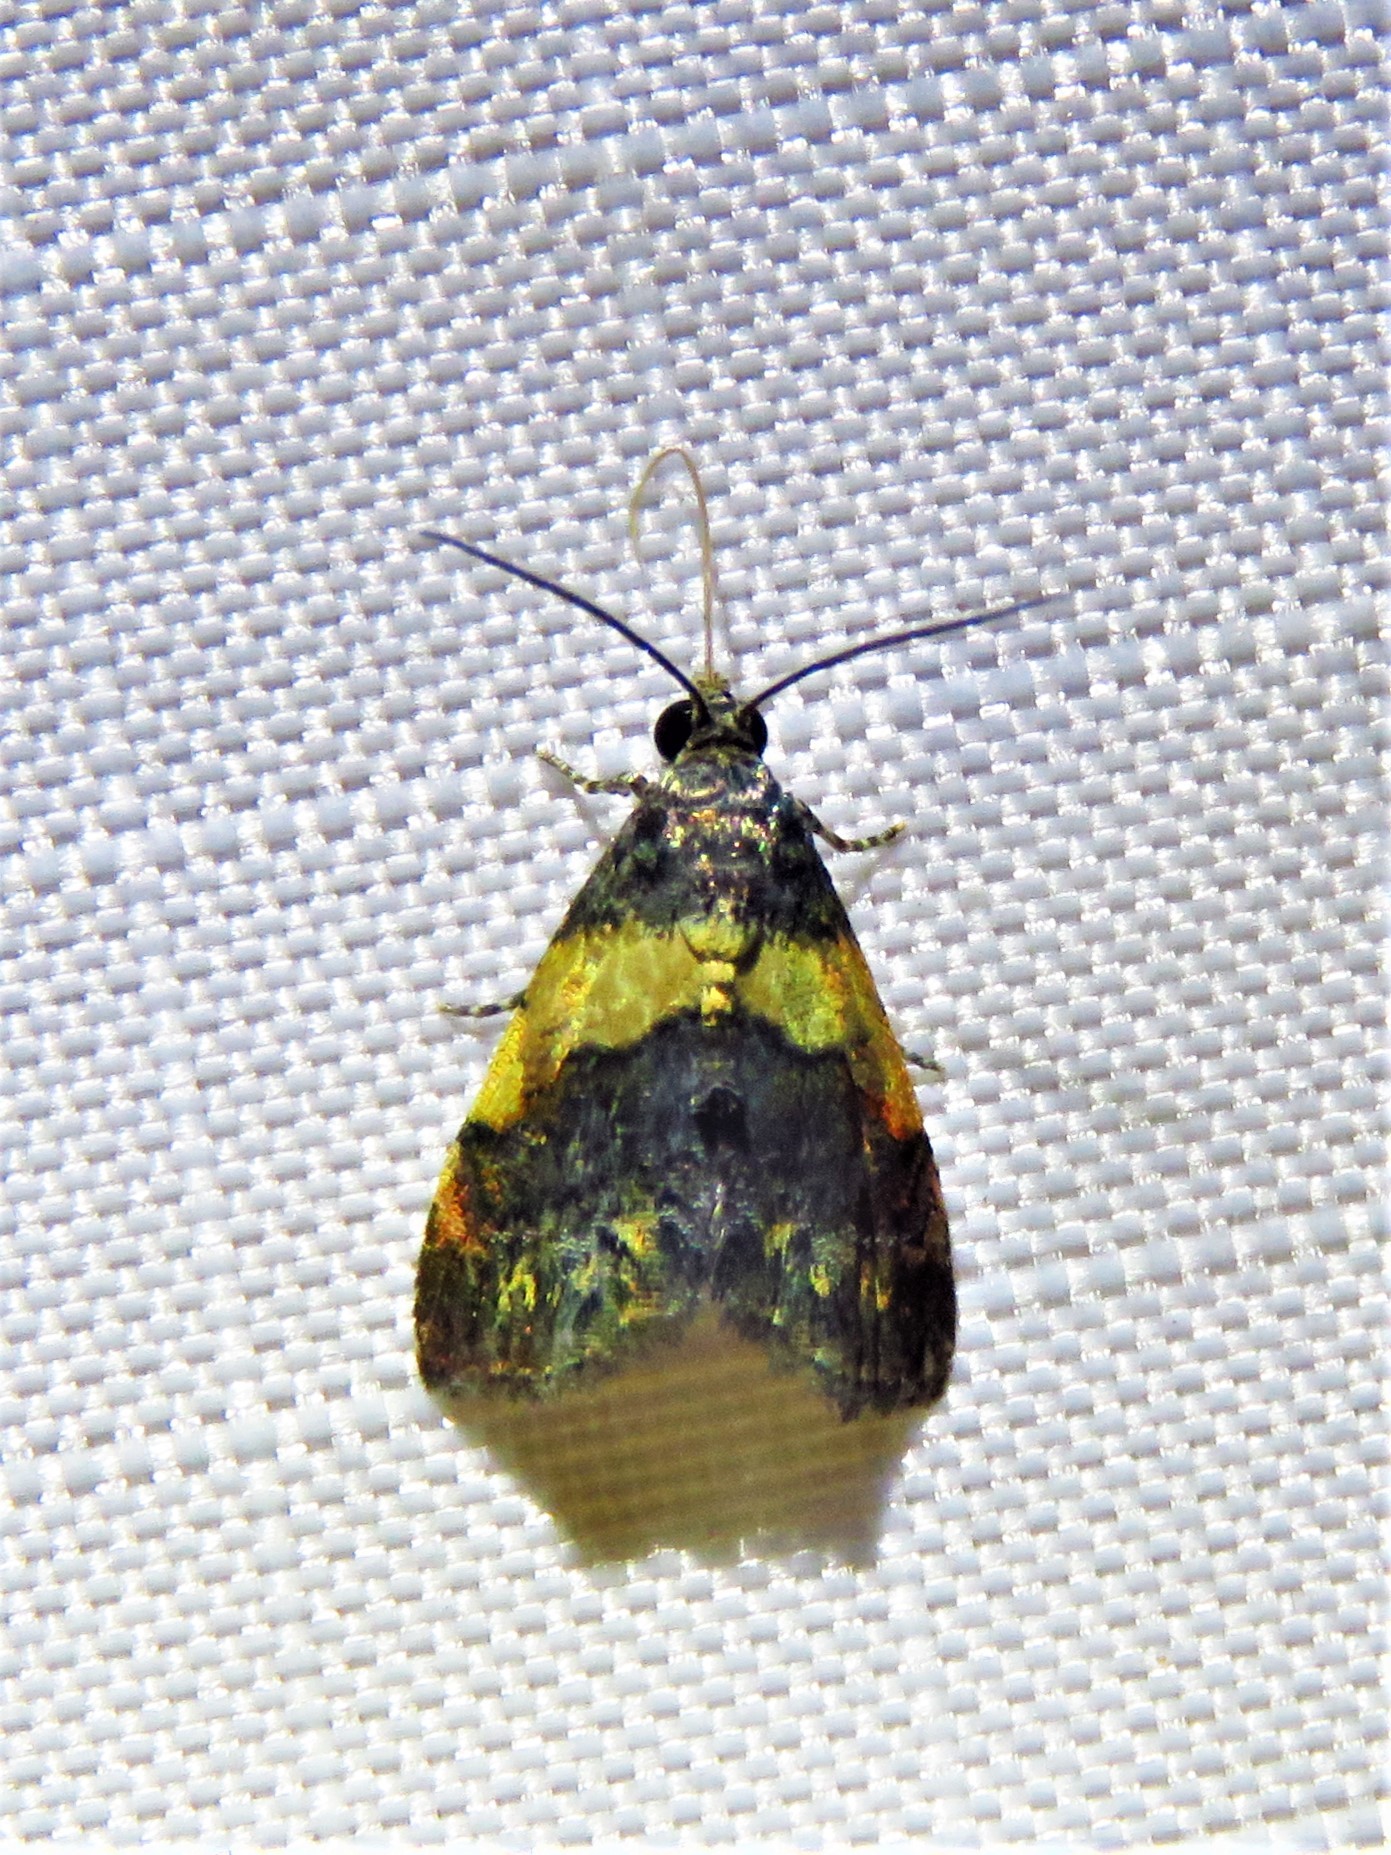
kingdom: Animalia
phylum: Arthropoda
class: Insecta
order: Lepidoptera
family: Noctuidae
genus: Tripudia
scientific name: Tripudia flavofasciata
